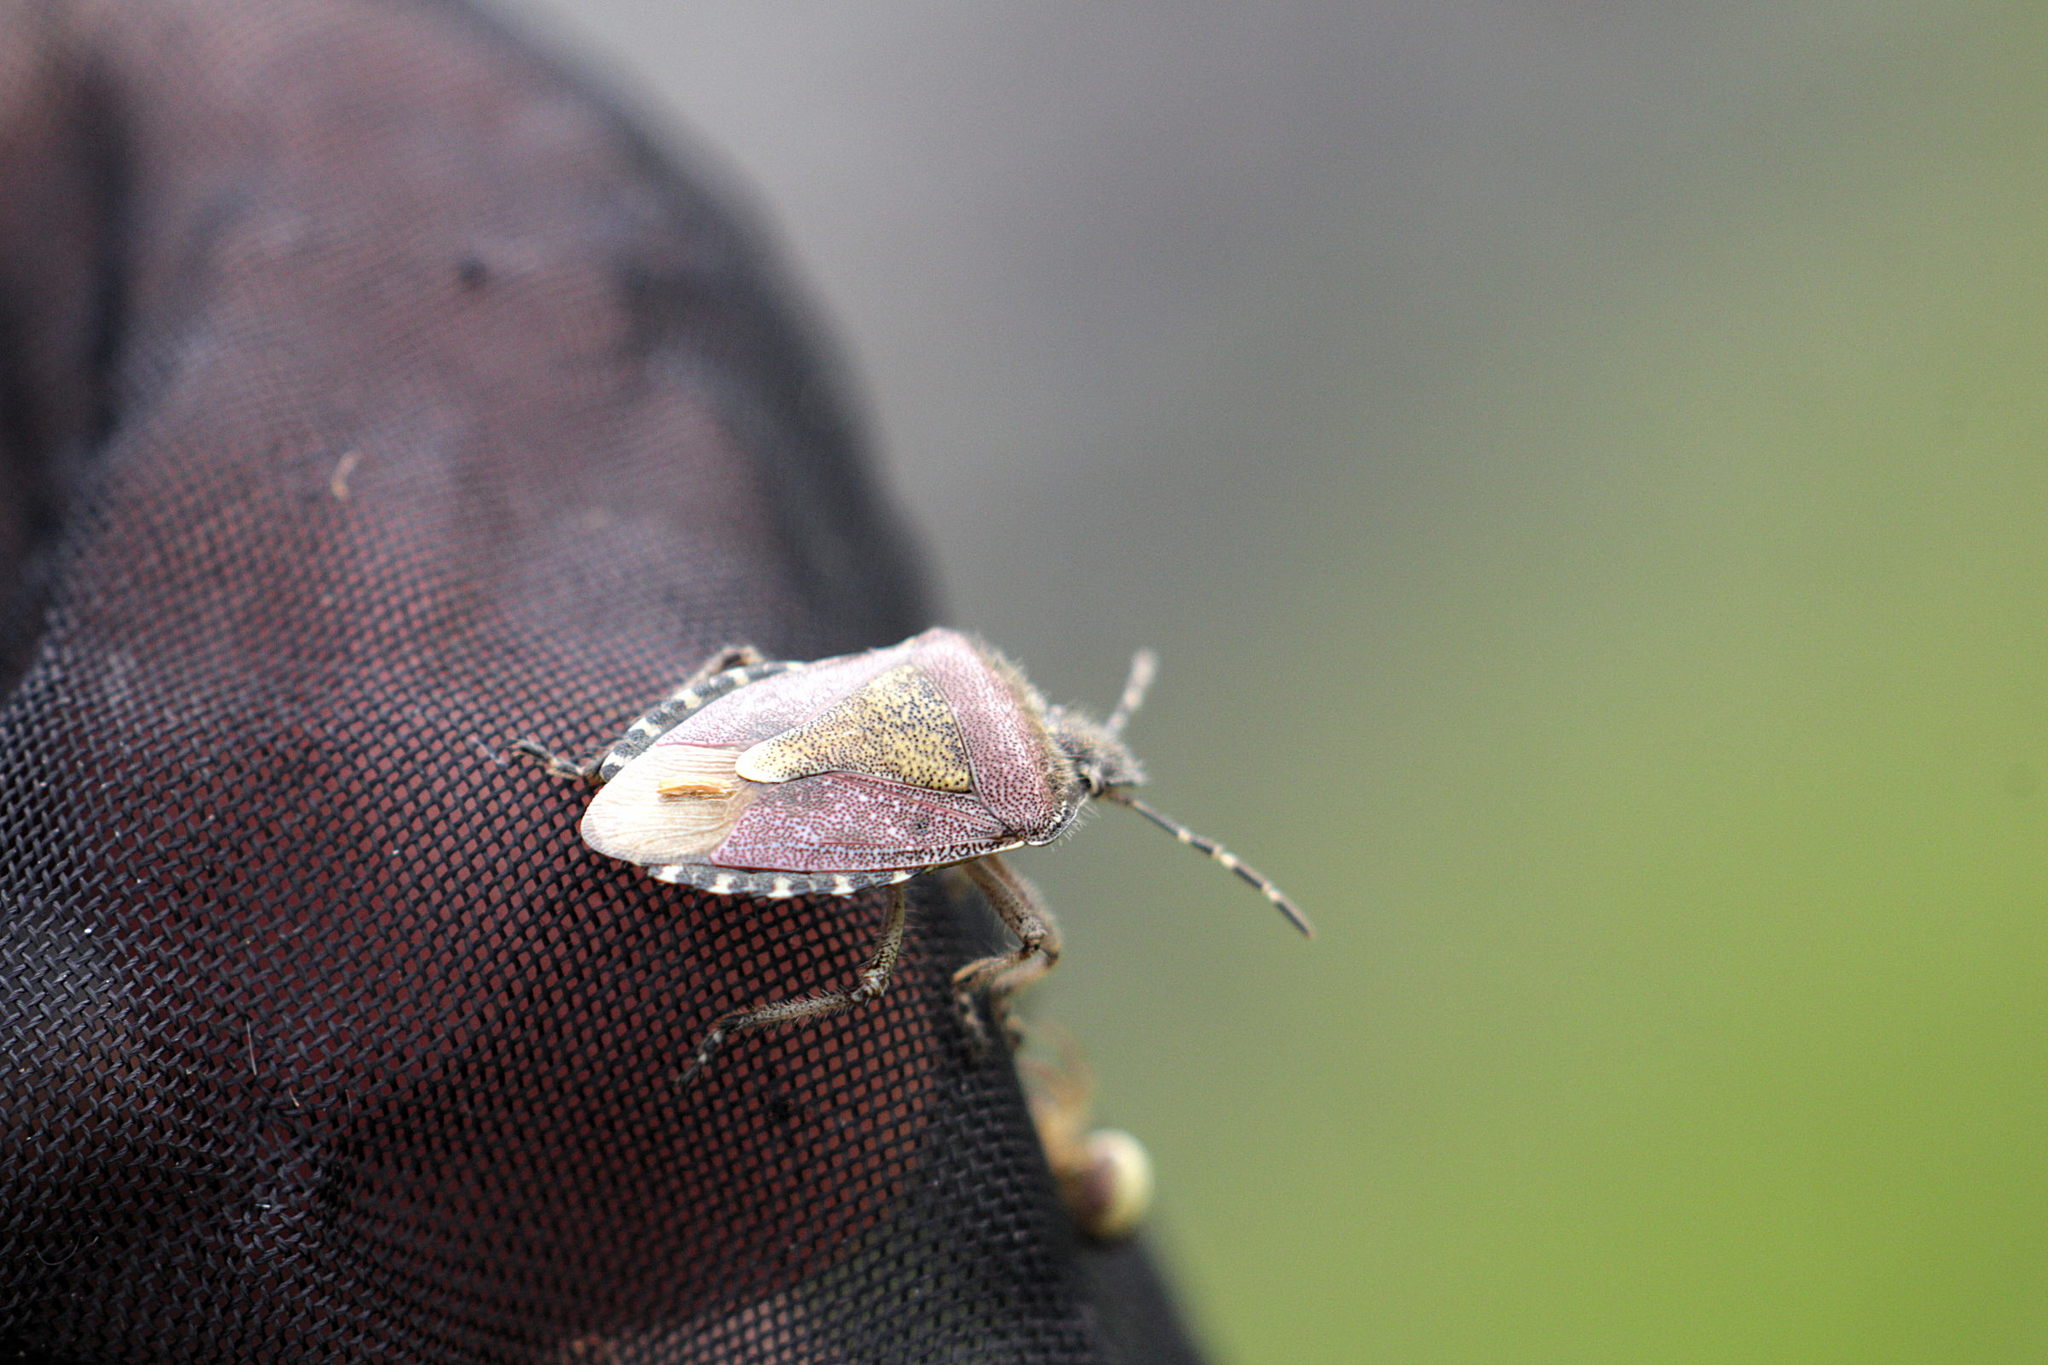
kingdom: Animalia
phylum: Arthropoda
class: Insecta
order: Hemiptera
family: Pentatomidae
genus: Dolycoris
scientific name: Dolycoris baccarum
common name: Sloe bug
